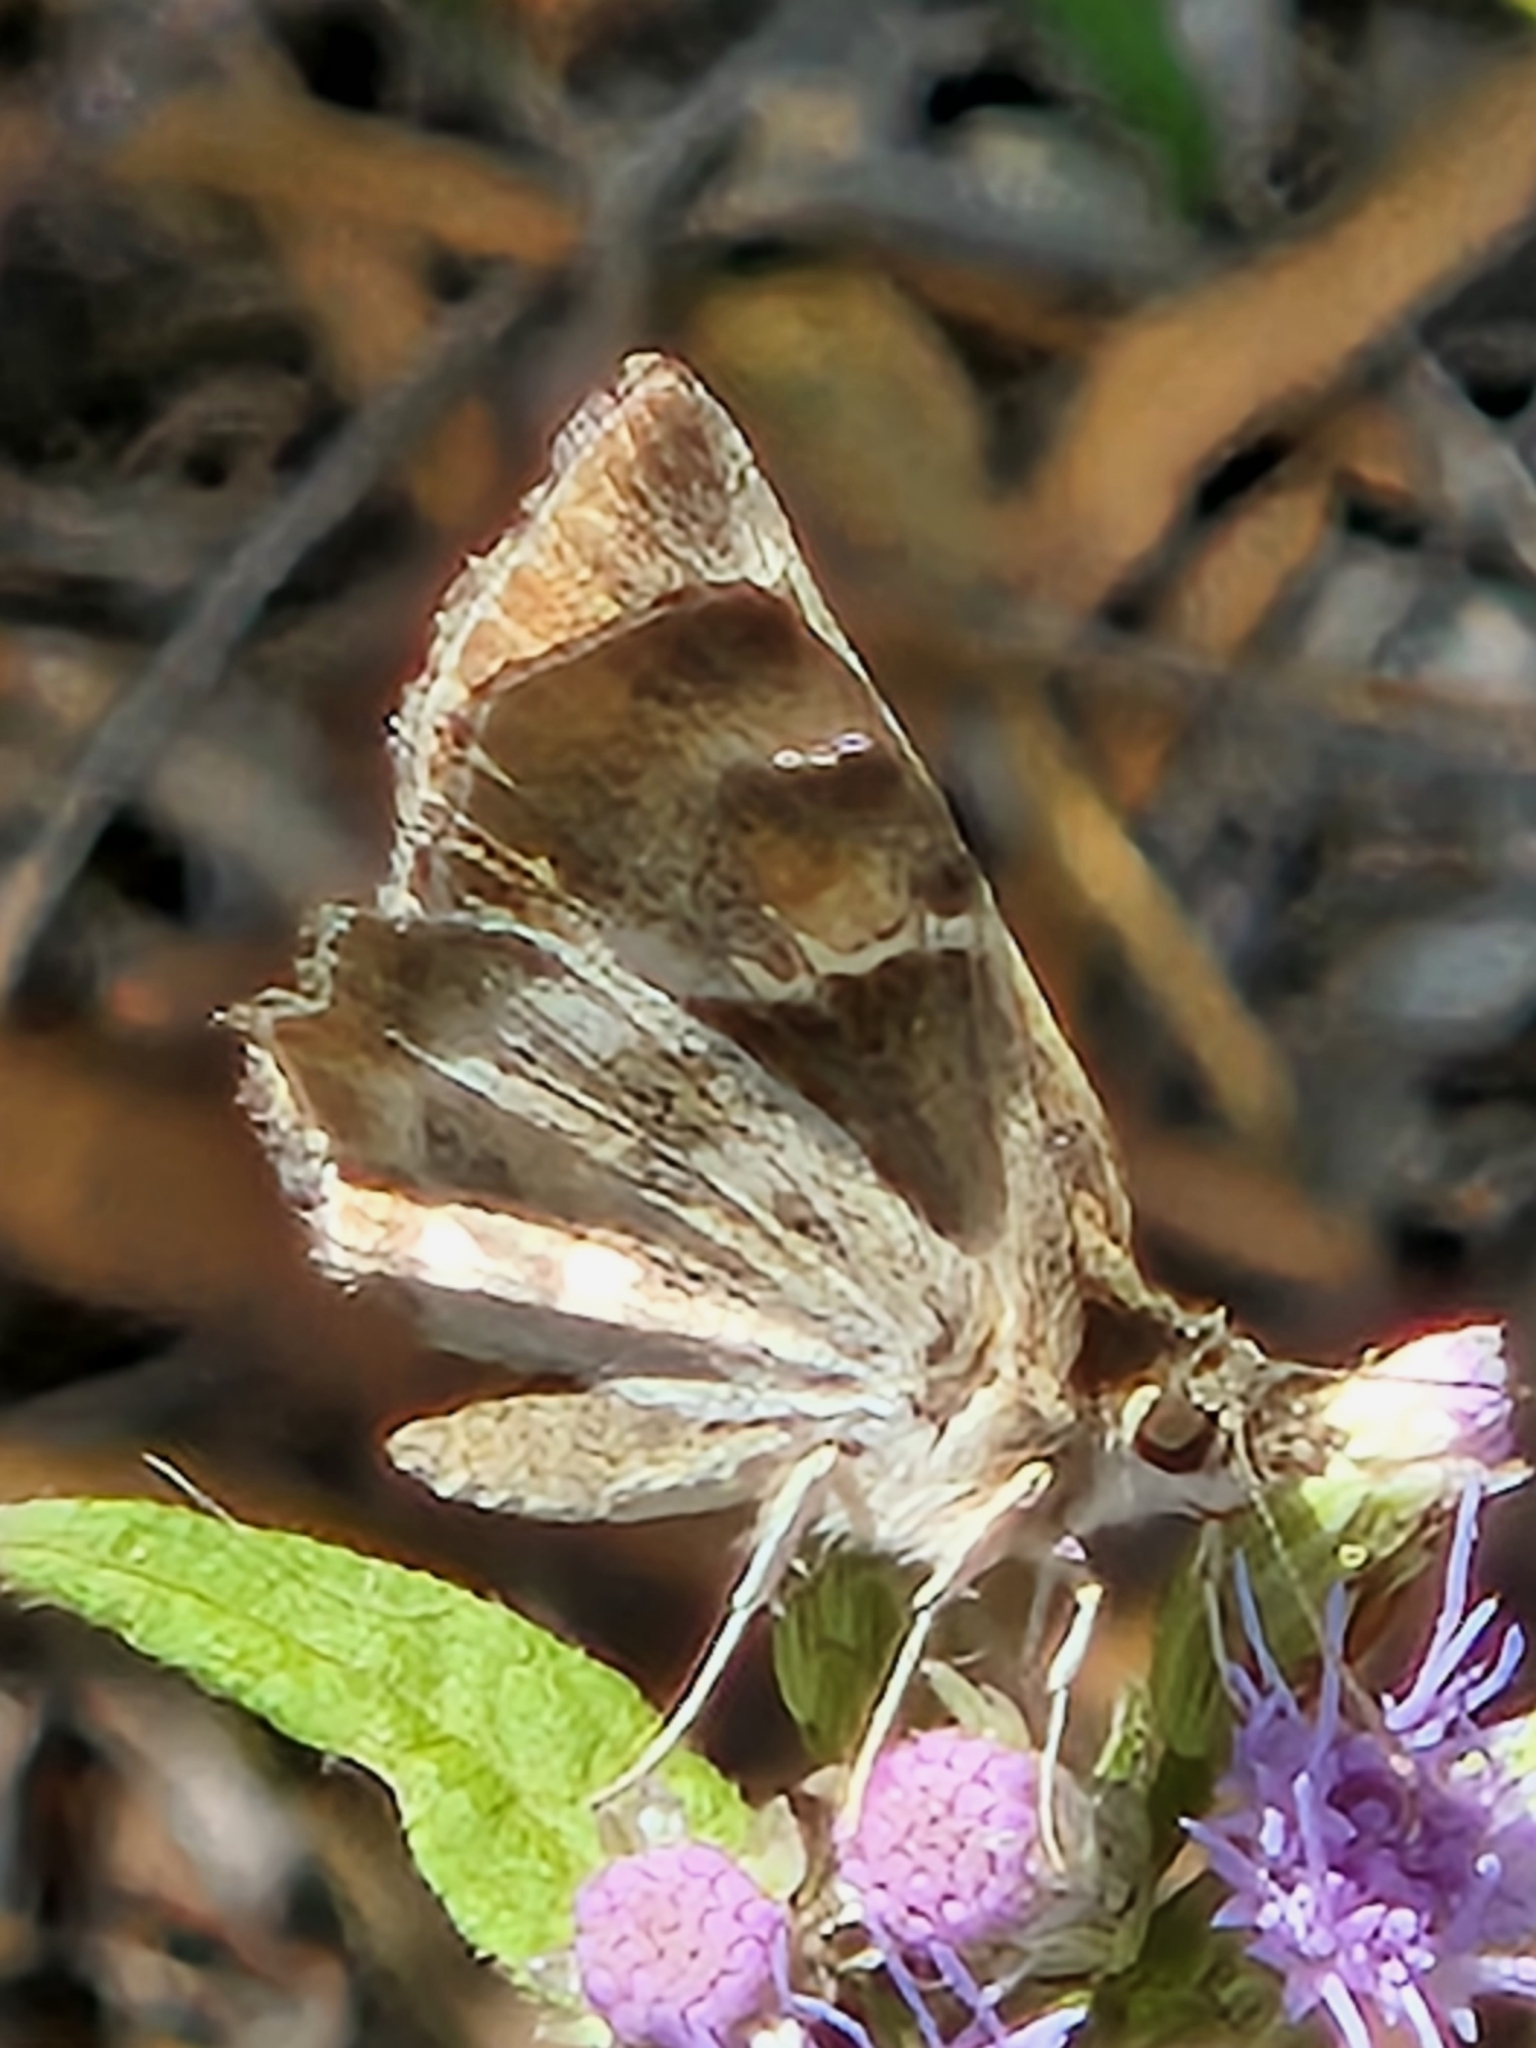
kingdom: Animalia
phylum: Arthropoda
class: Insecta
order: Lepidoptera
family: Hesperiidae
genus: Systasea
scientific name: Systasea pulverulenta
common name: Texas powdered skipper
